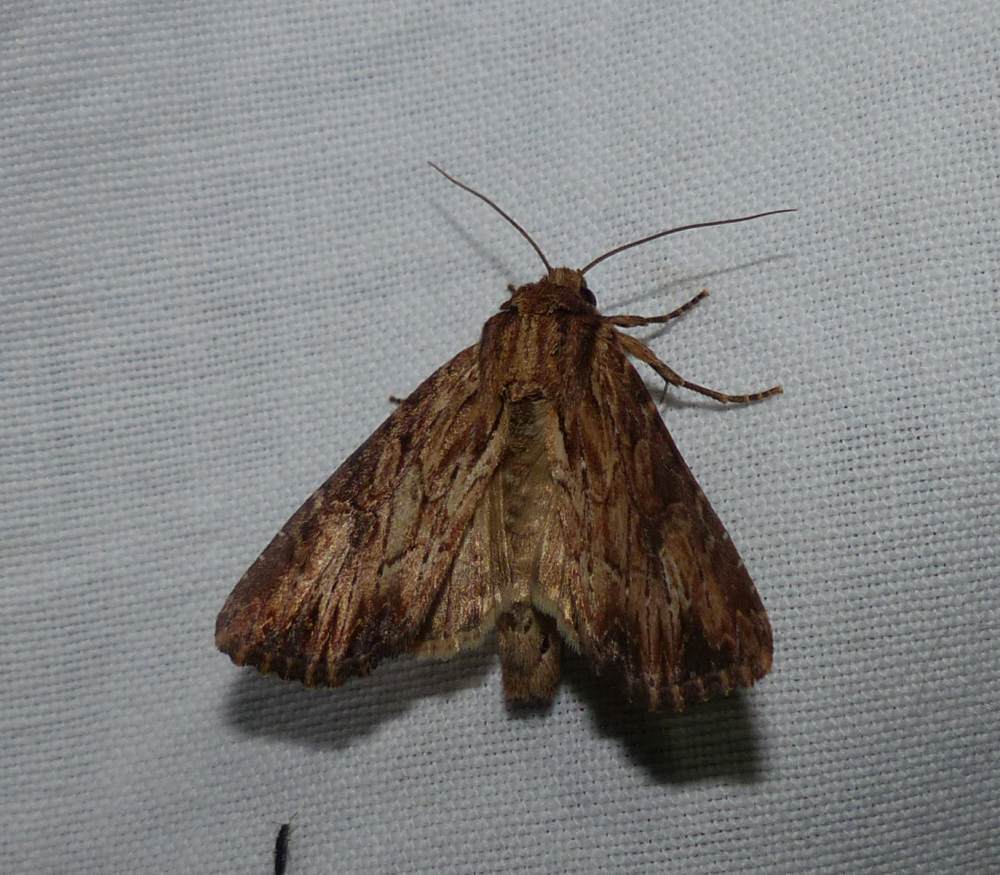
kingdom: Animalia
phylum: Arthropoda
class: Insecta
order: Lepidoptera
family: Noctuidae
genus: Apamea
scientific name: Apamea lignicolora
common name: Wood-colored apamea moth
